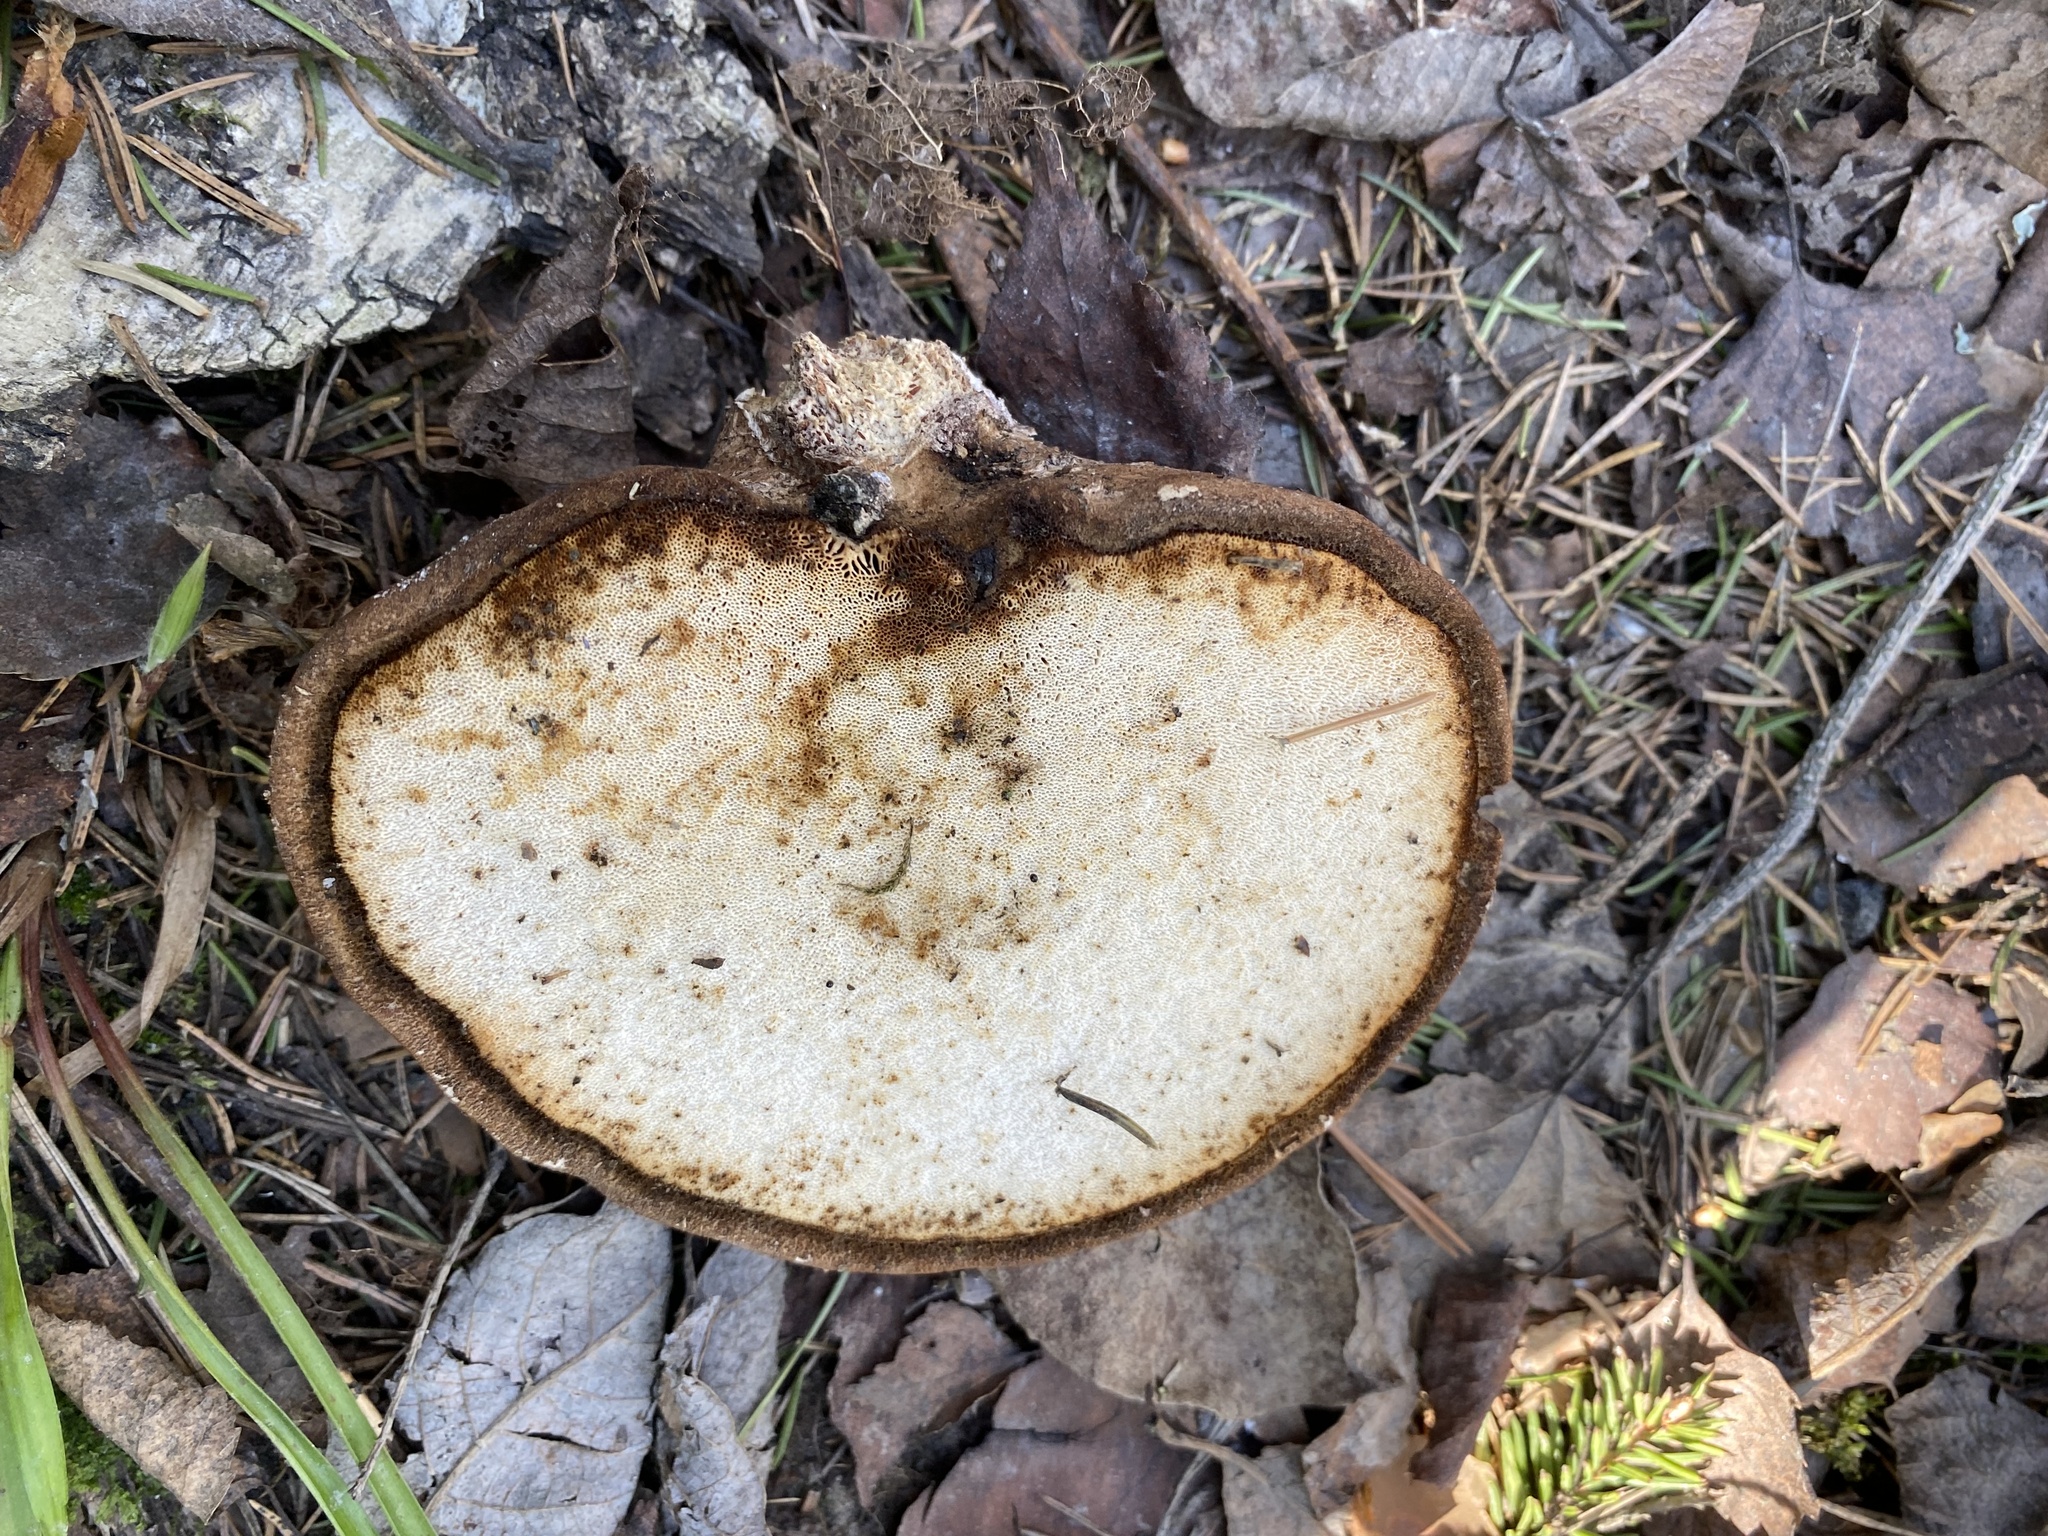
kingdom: Fungi
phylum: Basidiomycota
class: Agaricomycetes
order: Polyporales
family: Fomitopsidaceae
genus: Fomitopsis
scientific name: Fomitopsis betulina
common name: Birch polypore
